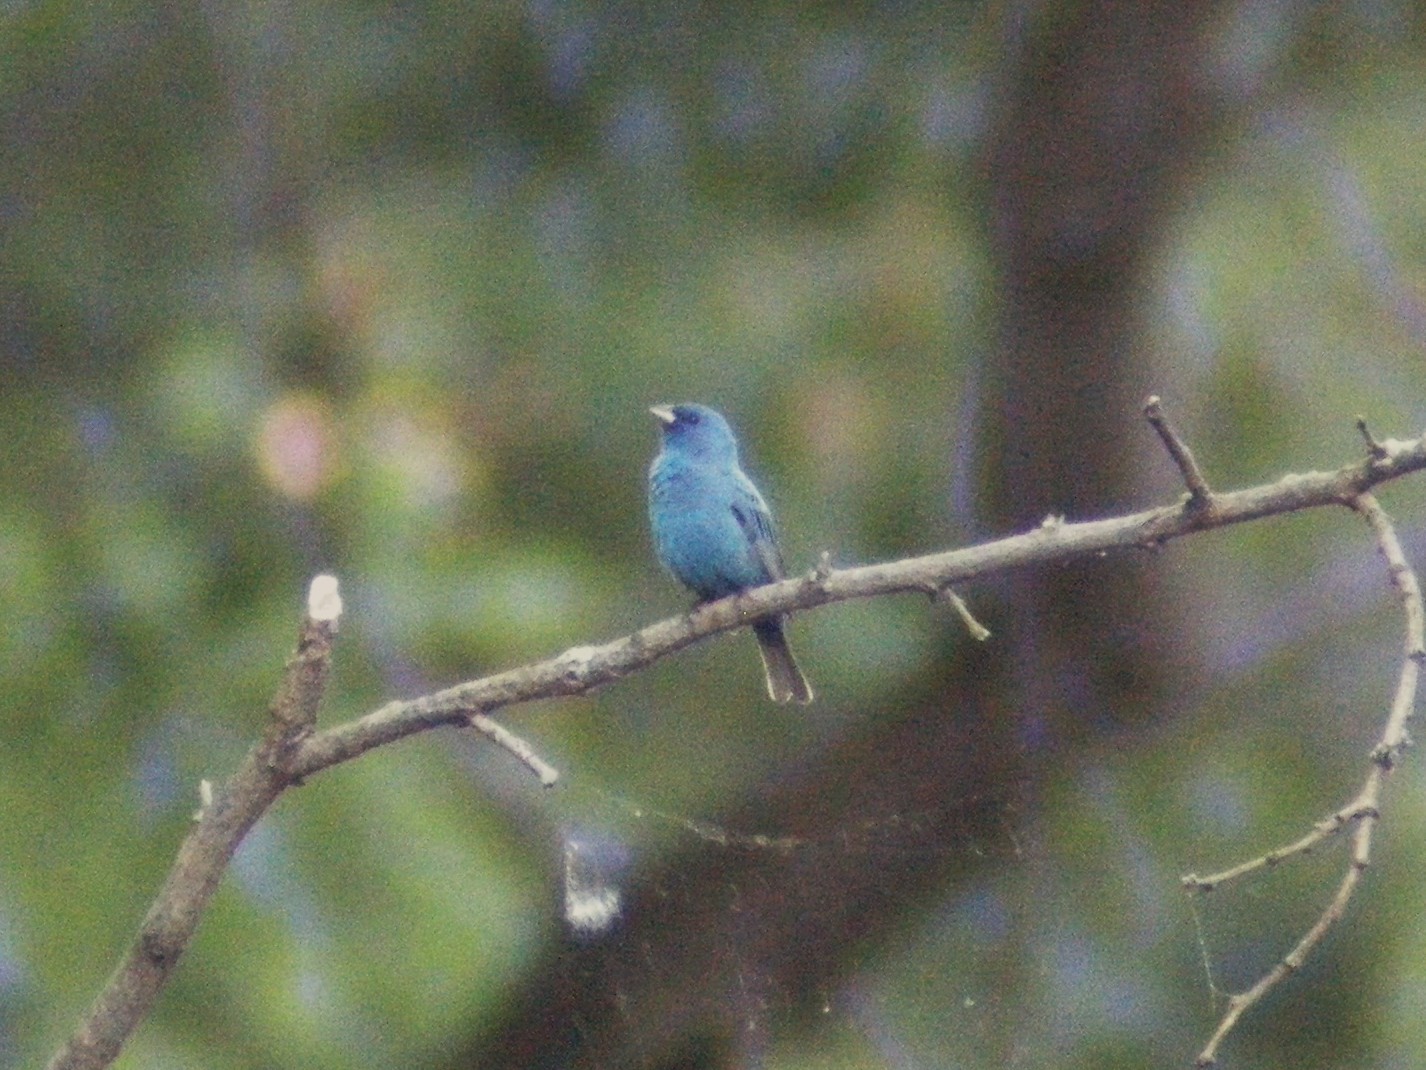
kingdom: Animalia
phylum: Chordata
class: Aves
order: Passeriformes
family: Cardinalidae
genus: Passerina
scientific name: Passerina cyanea
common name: Indigo bunting
